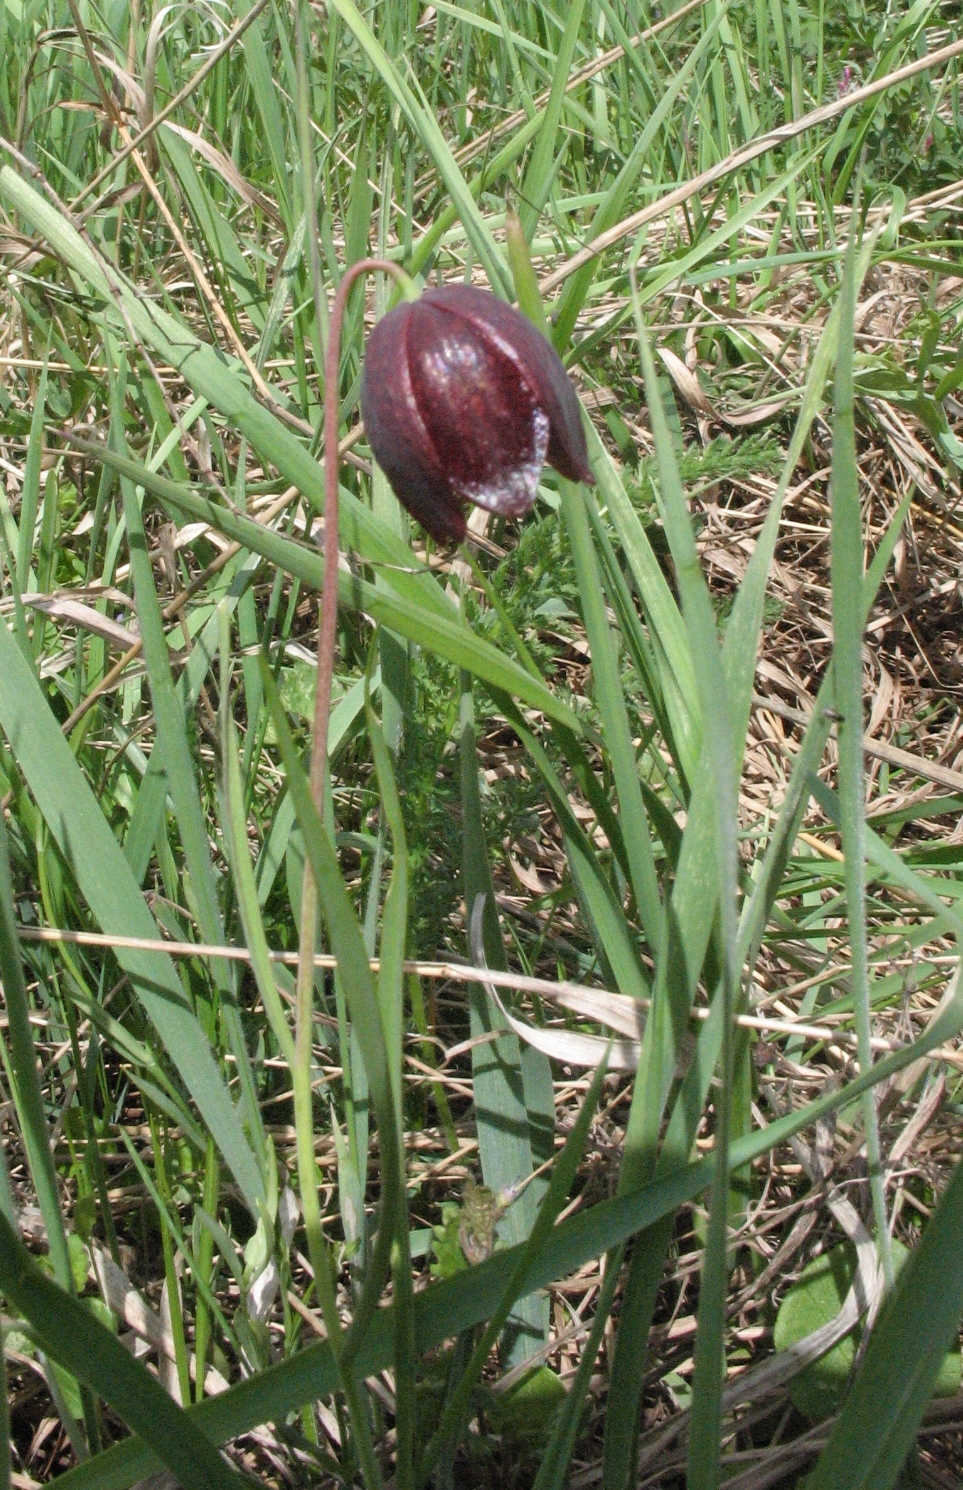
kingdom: Plantae
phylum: Tracheophyta
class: Liliopsida
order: Liliales
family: Liliaceae
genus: Fritillaria
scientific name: Fritillaria meleagroides
